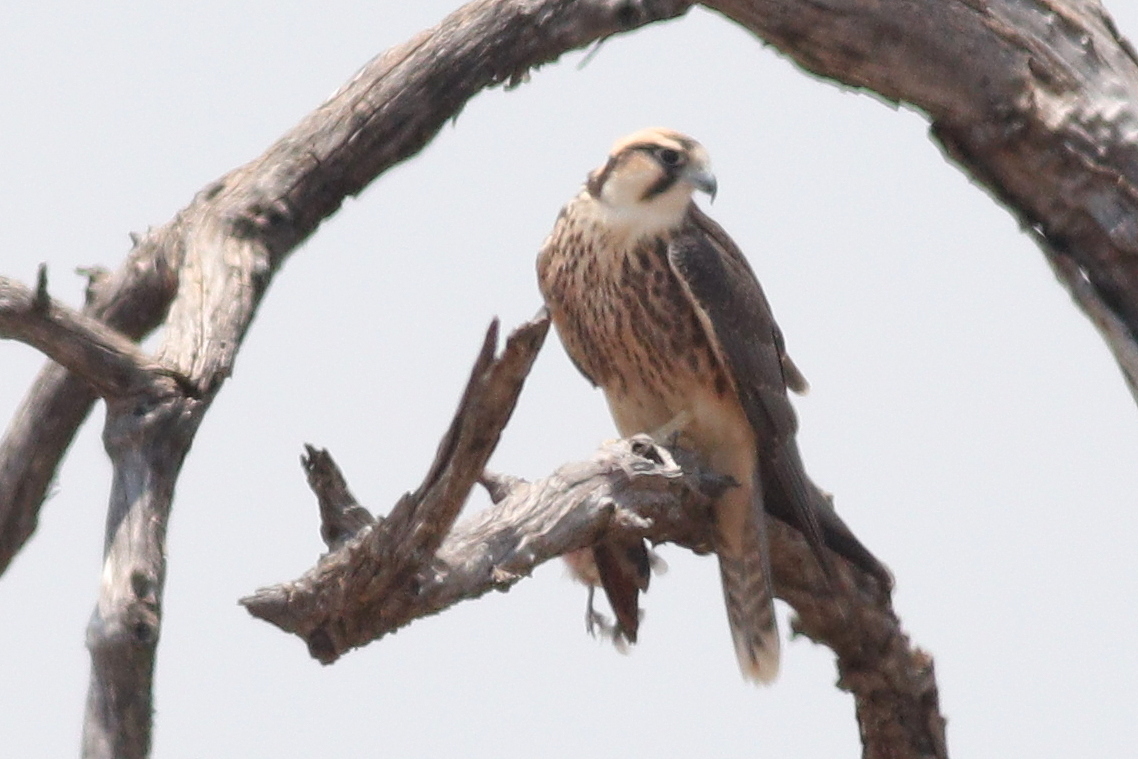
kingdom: Animalia
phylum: Chordata
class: Aves
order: Falconiformes
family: Falconidae
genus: Falco
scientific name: Falco biarmicus
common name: Lanner falcon
